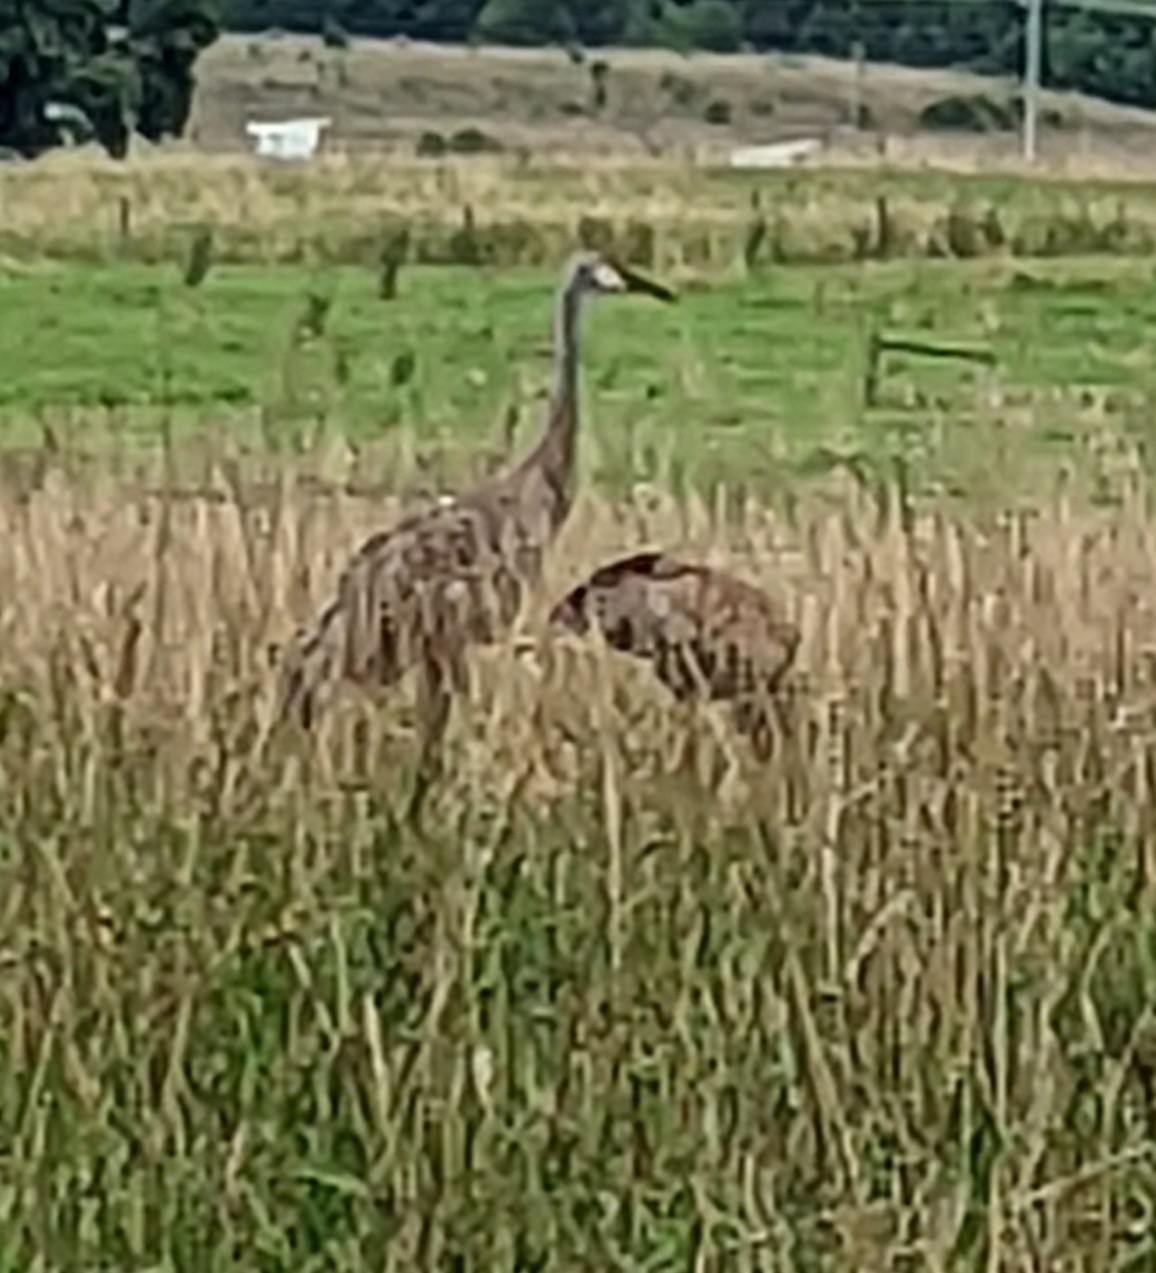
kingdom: Animalia
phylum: Chordata
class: Aves
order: Gruiformes
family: Gruidae
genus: Grus
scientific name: Grus canadensis
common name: Sandhill crane
